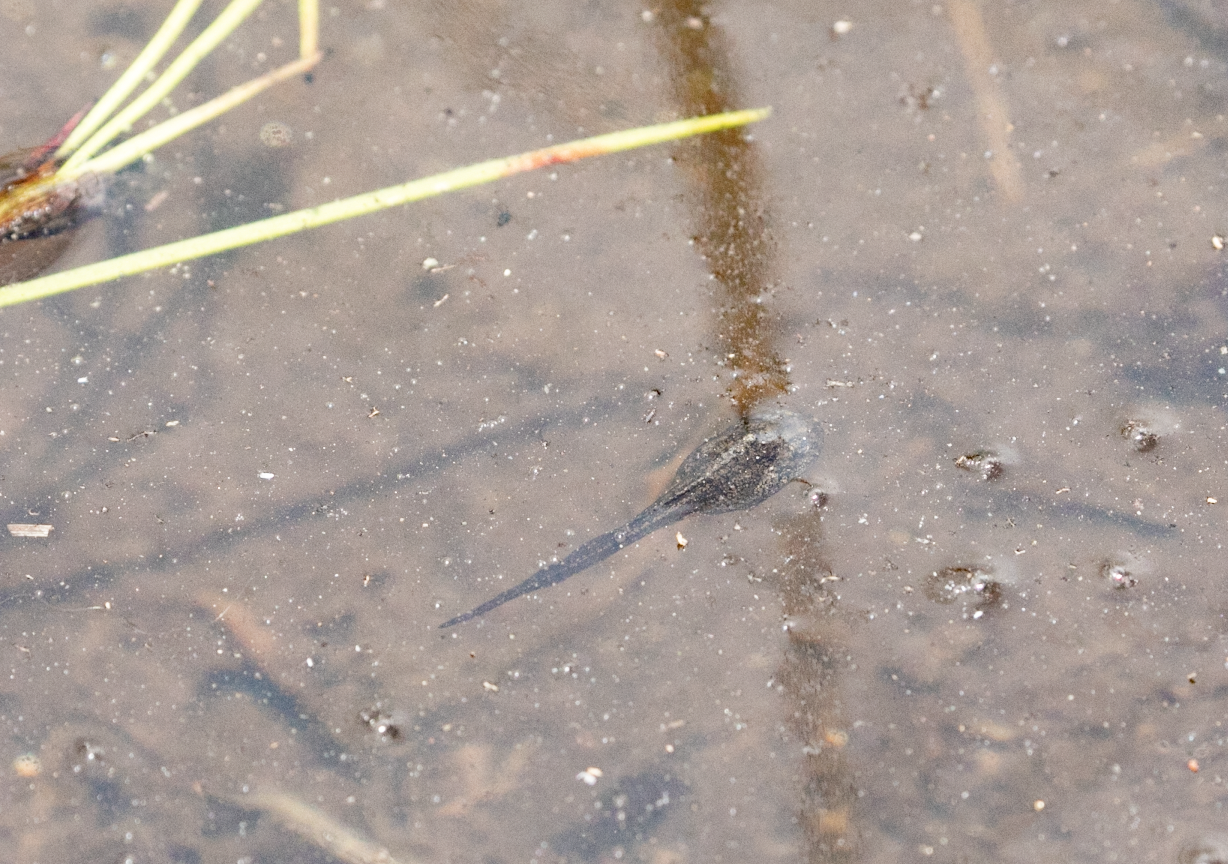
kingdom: Animalia
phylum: Chordata
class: Amphibia
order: Anura
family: Ranidae
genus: Rana
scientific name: Rana temporaria
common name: Common frog
